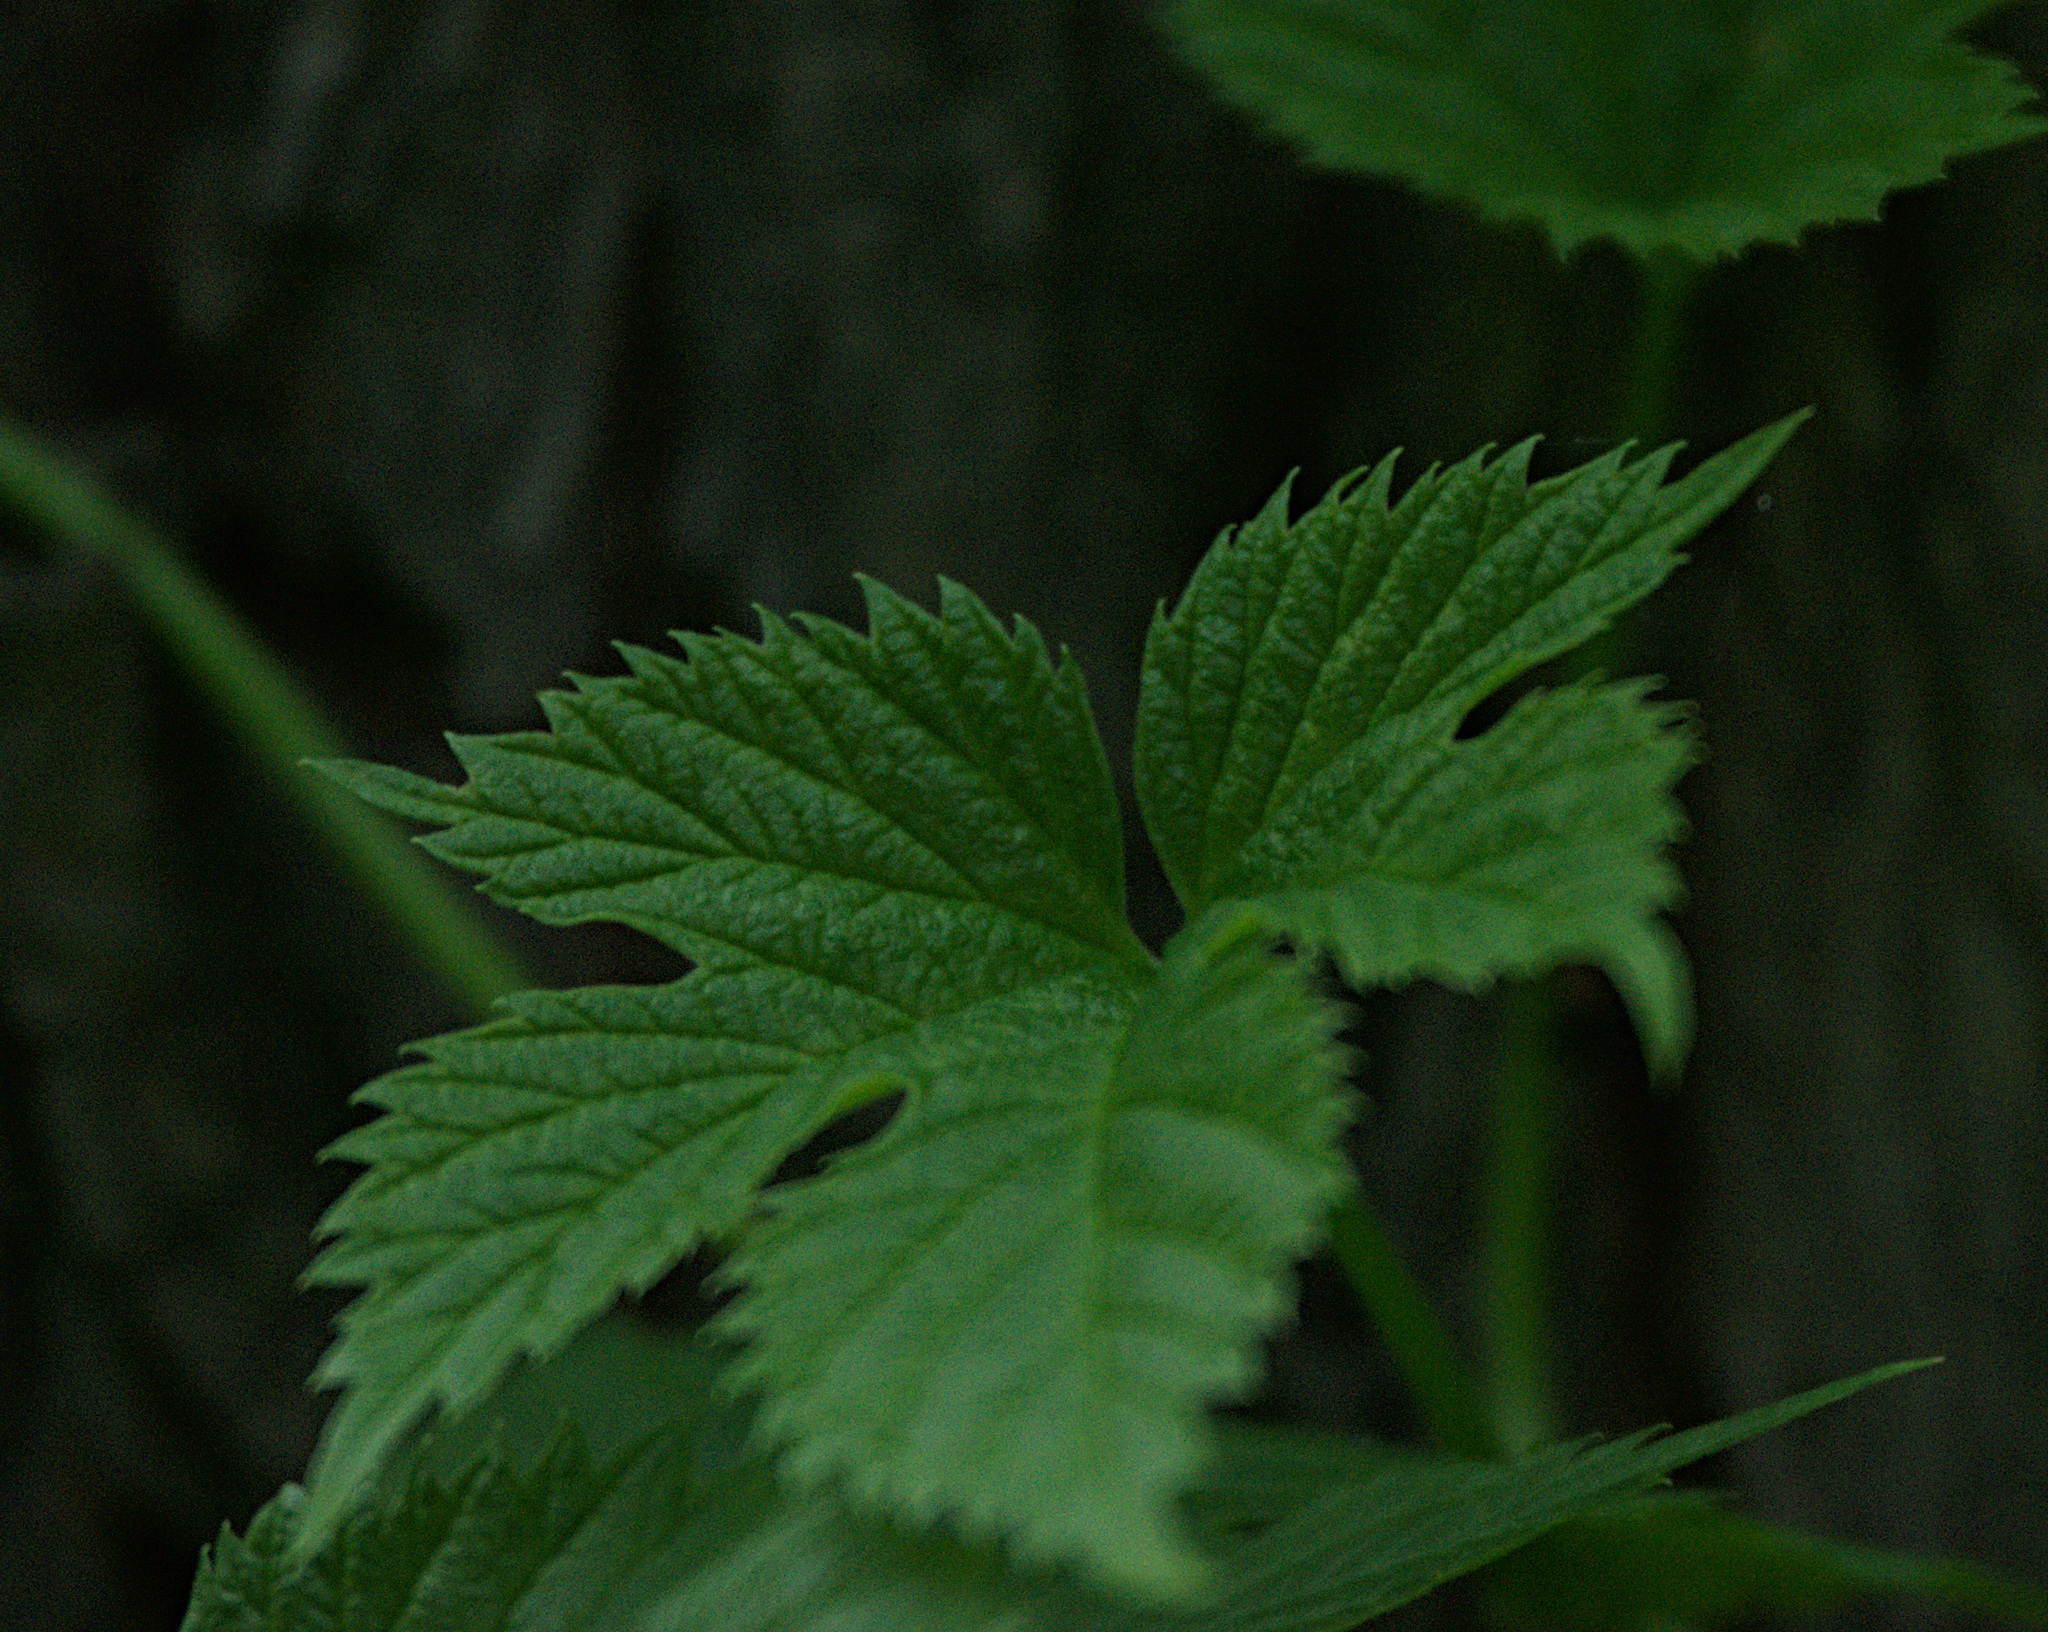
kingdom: Plantae
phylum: Tracheophyta
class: Magnoliopsida
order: Rosales
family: Cannabaceae
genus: Humulus
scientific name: Humulus lupulus
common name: Hop
